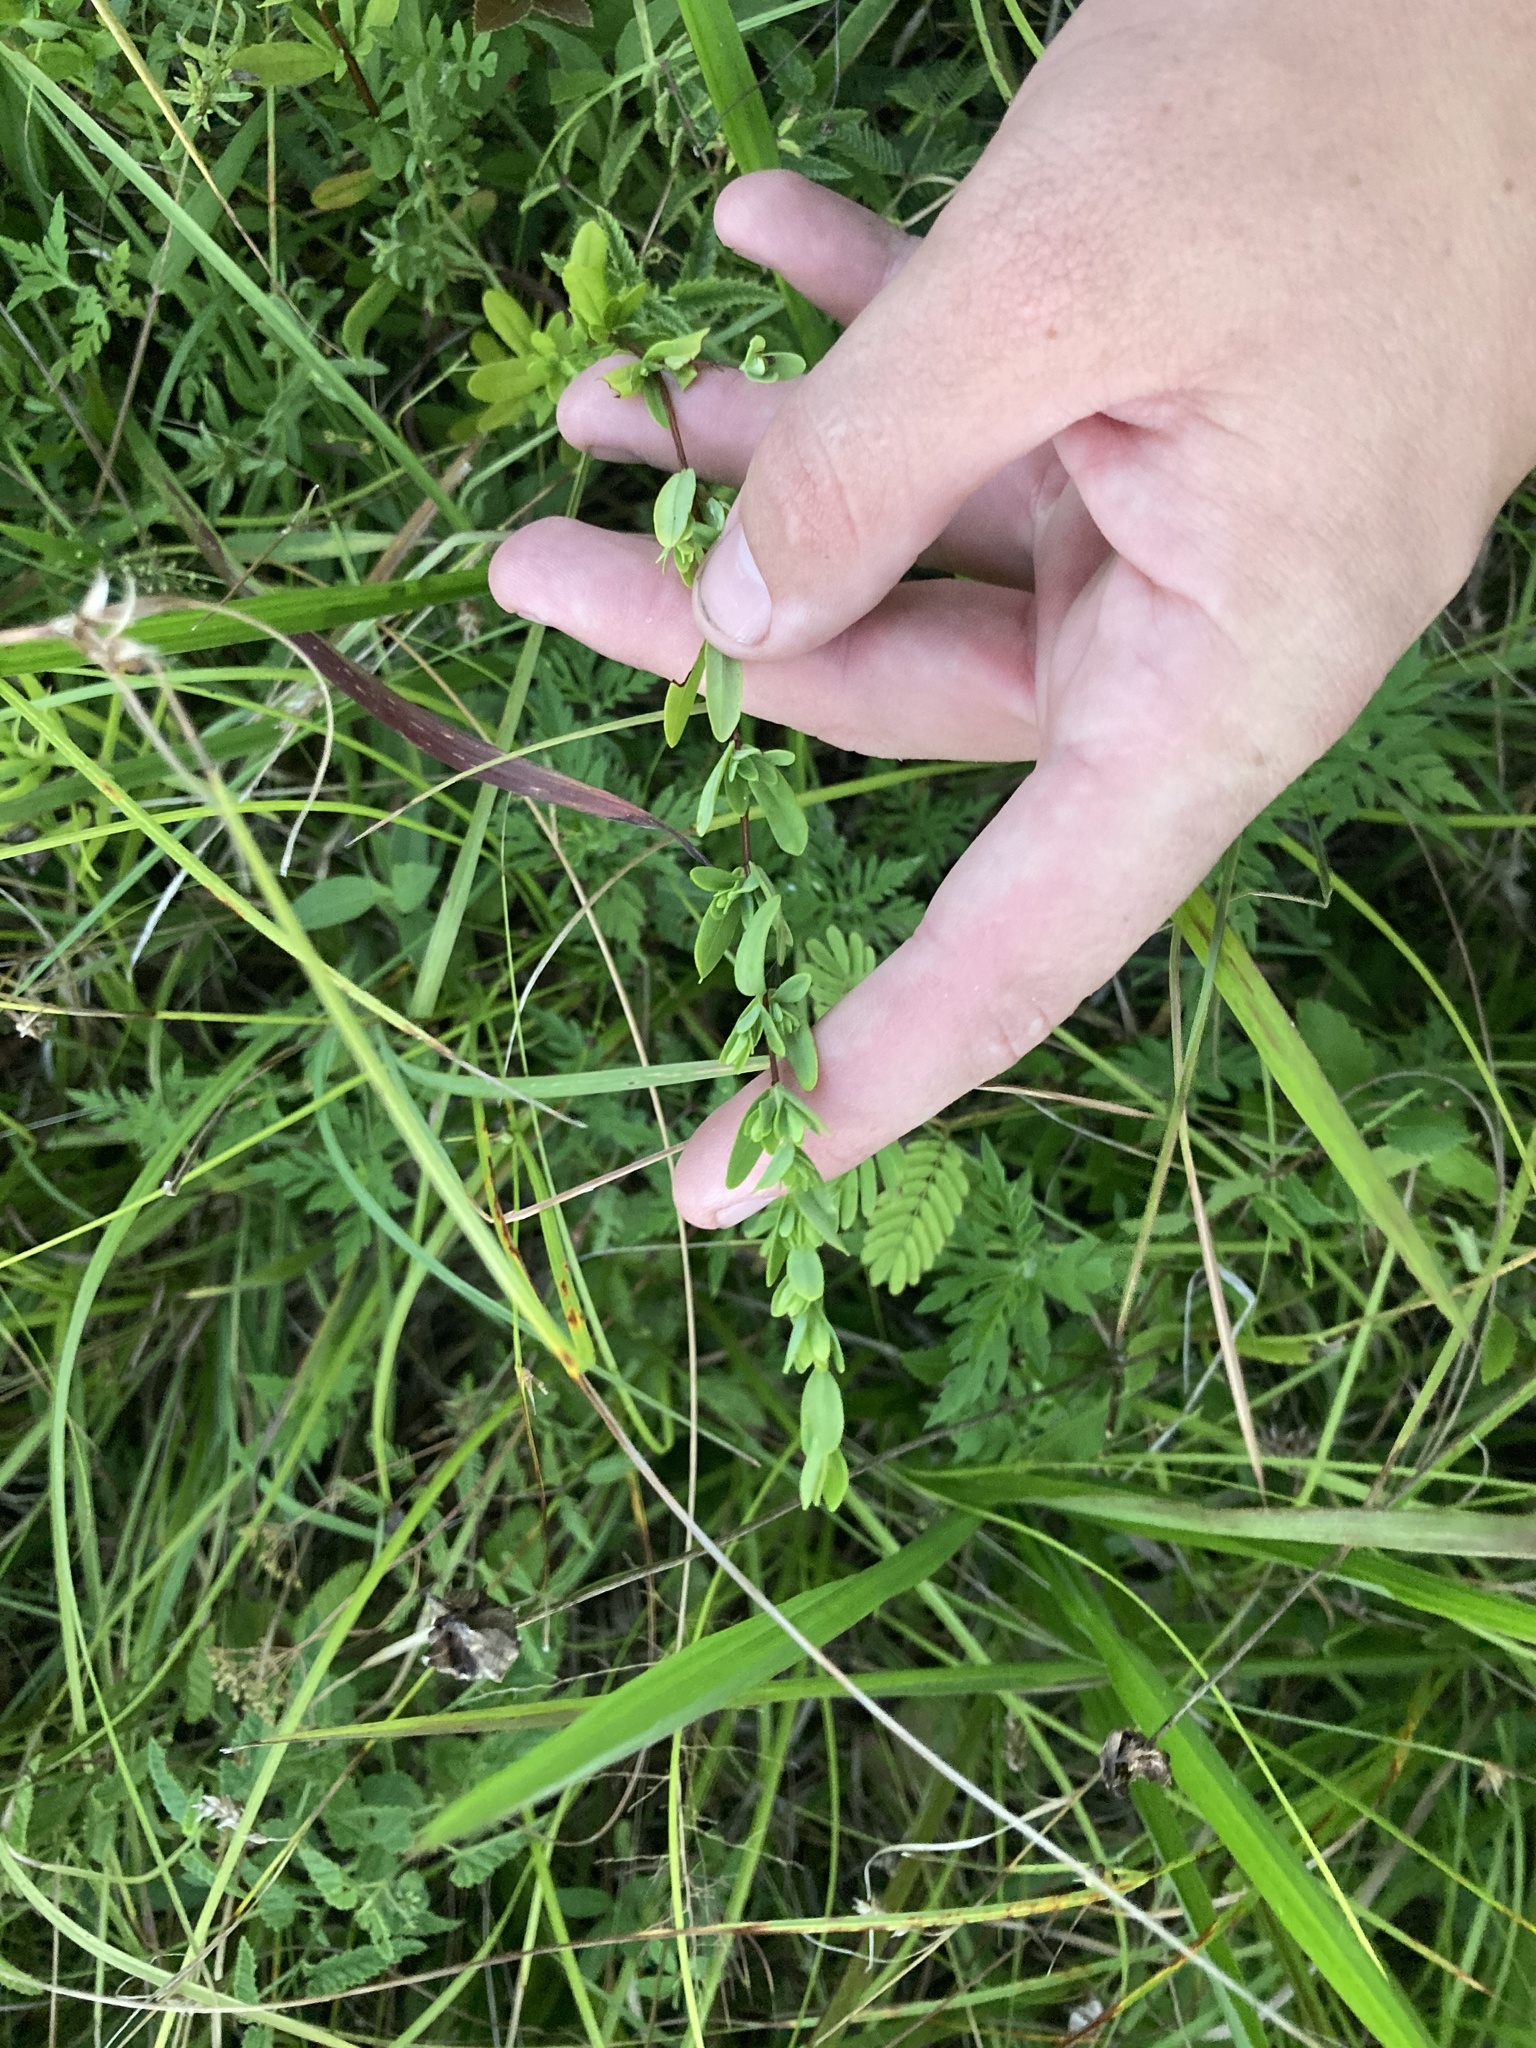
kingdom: Plantae
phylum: Tracheophyta
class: Magnoliopsida
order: Malpighiales
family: Hypericaceae
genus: Hypericum
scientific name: Hypericum hypericoides
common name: St. andrew's cross
